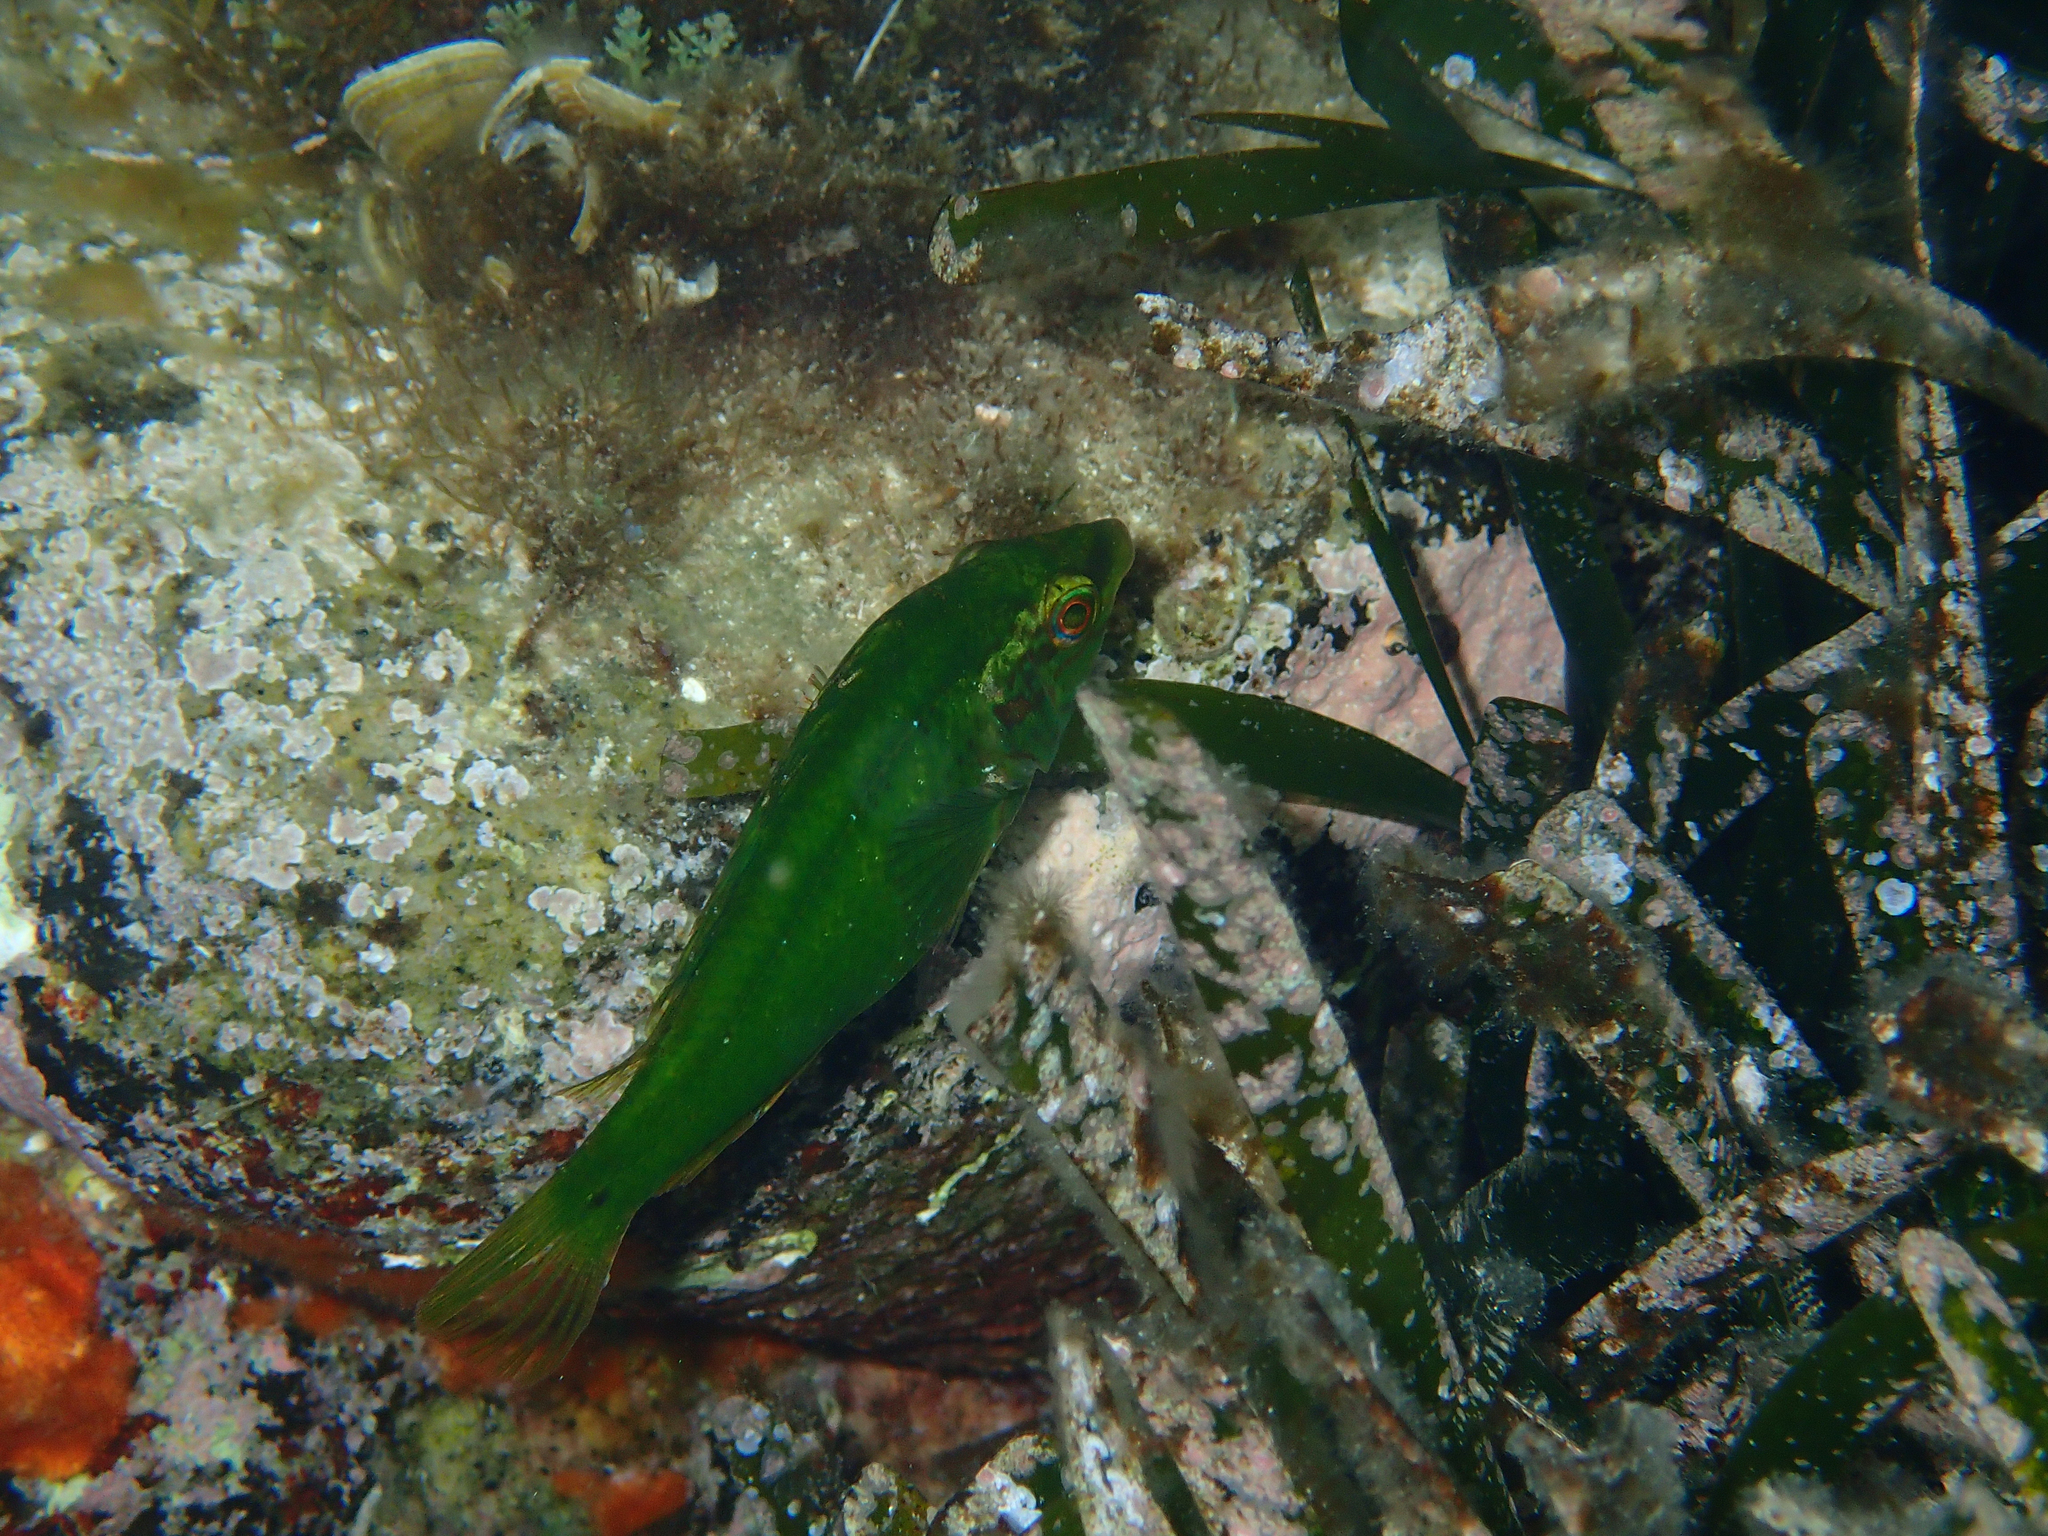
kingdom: Animalia
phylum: Chordata
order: Perciformes
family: Labridae
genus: Symphodus
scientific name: Symphodus roissali
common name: Five-spotted wrasse
